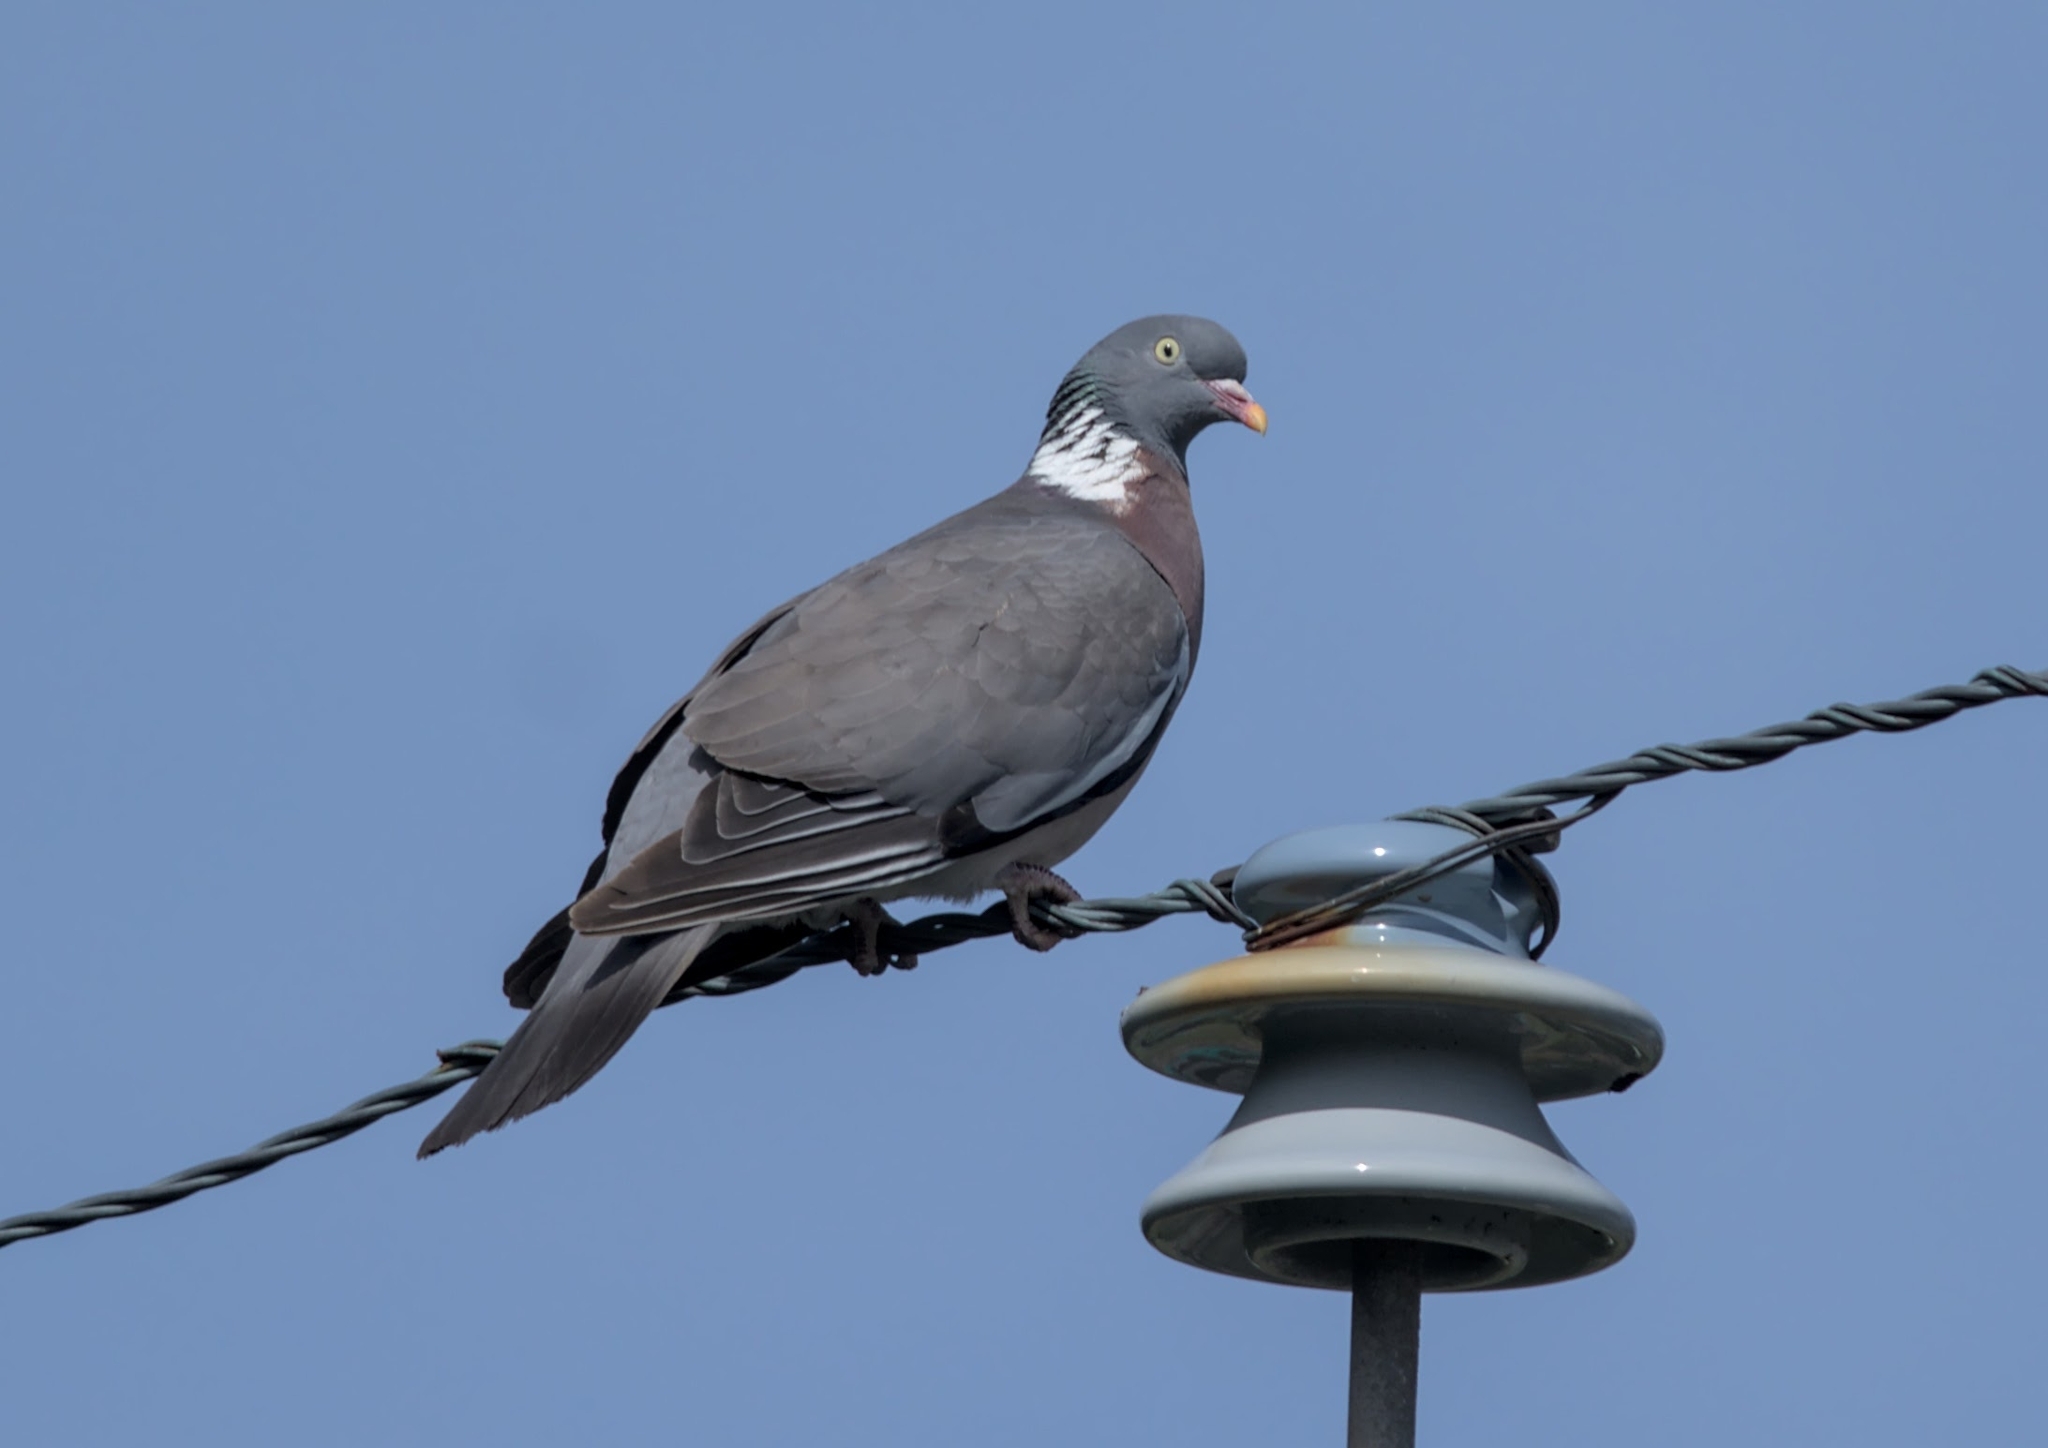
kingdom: Animalia
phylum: Chordata
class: Aves
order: Columbiformes
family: Columbidae
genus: Columba
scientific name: Columba palumbus
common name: Common wood pigeon
